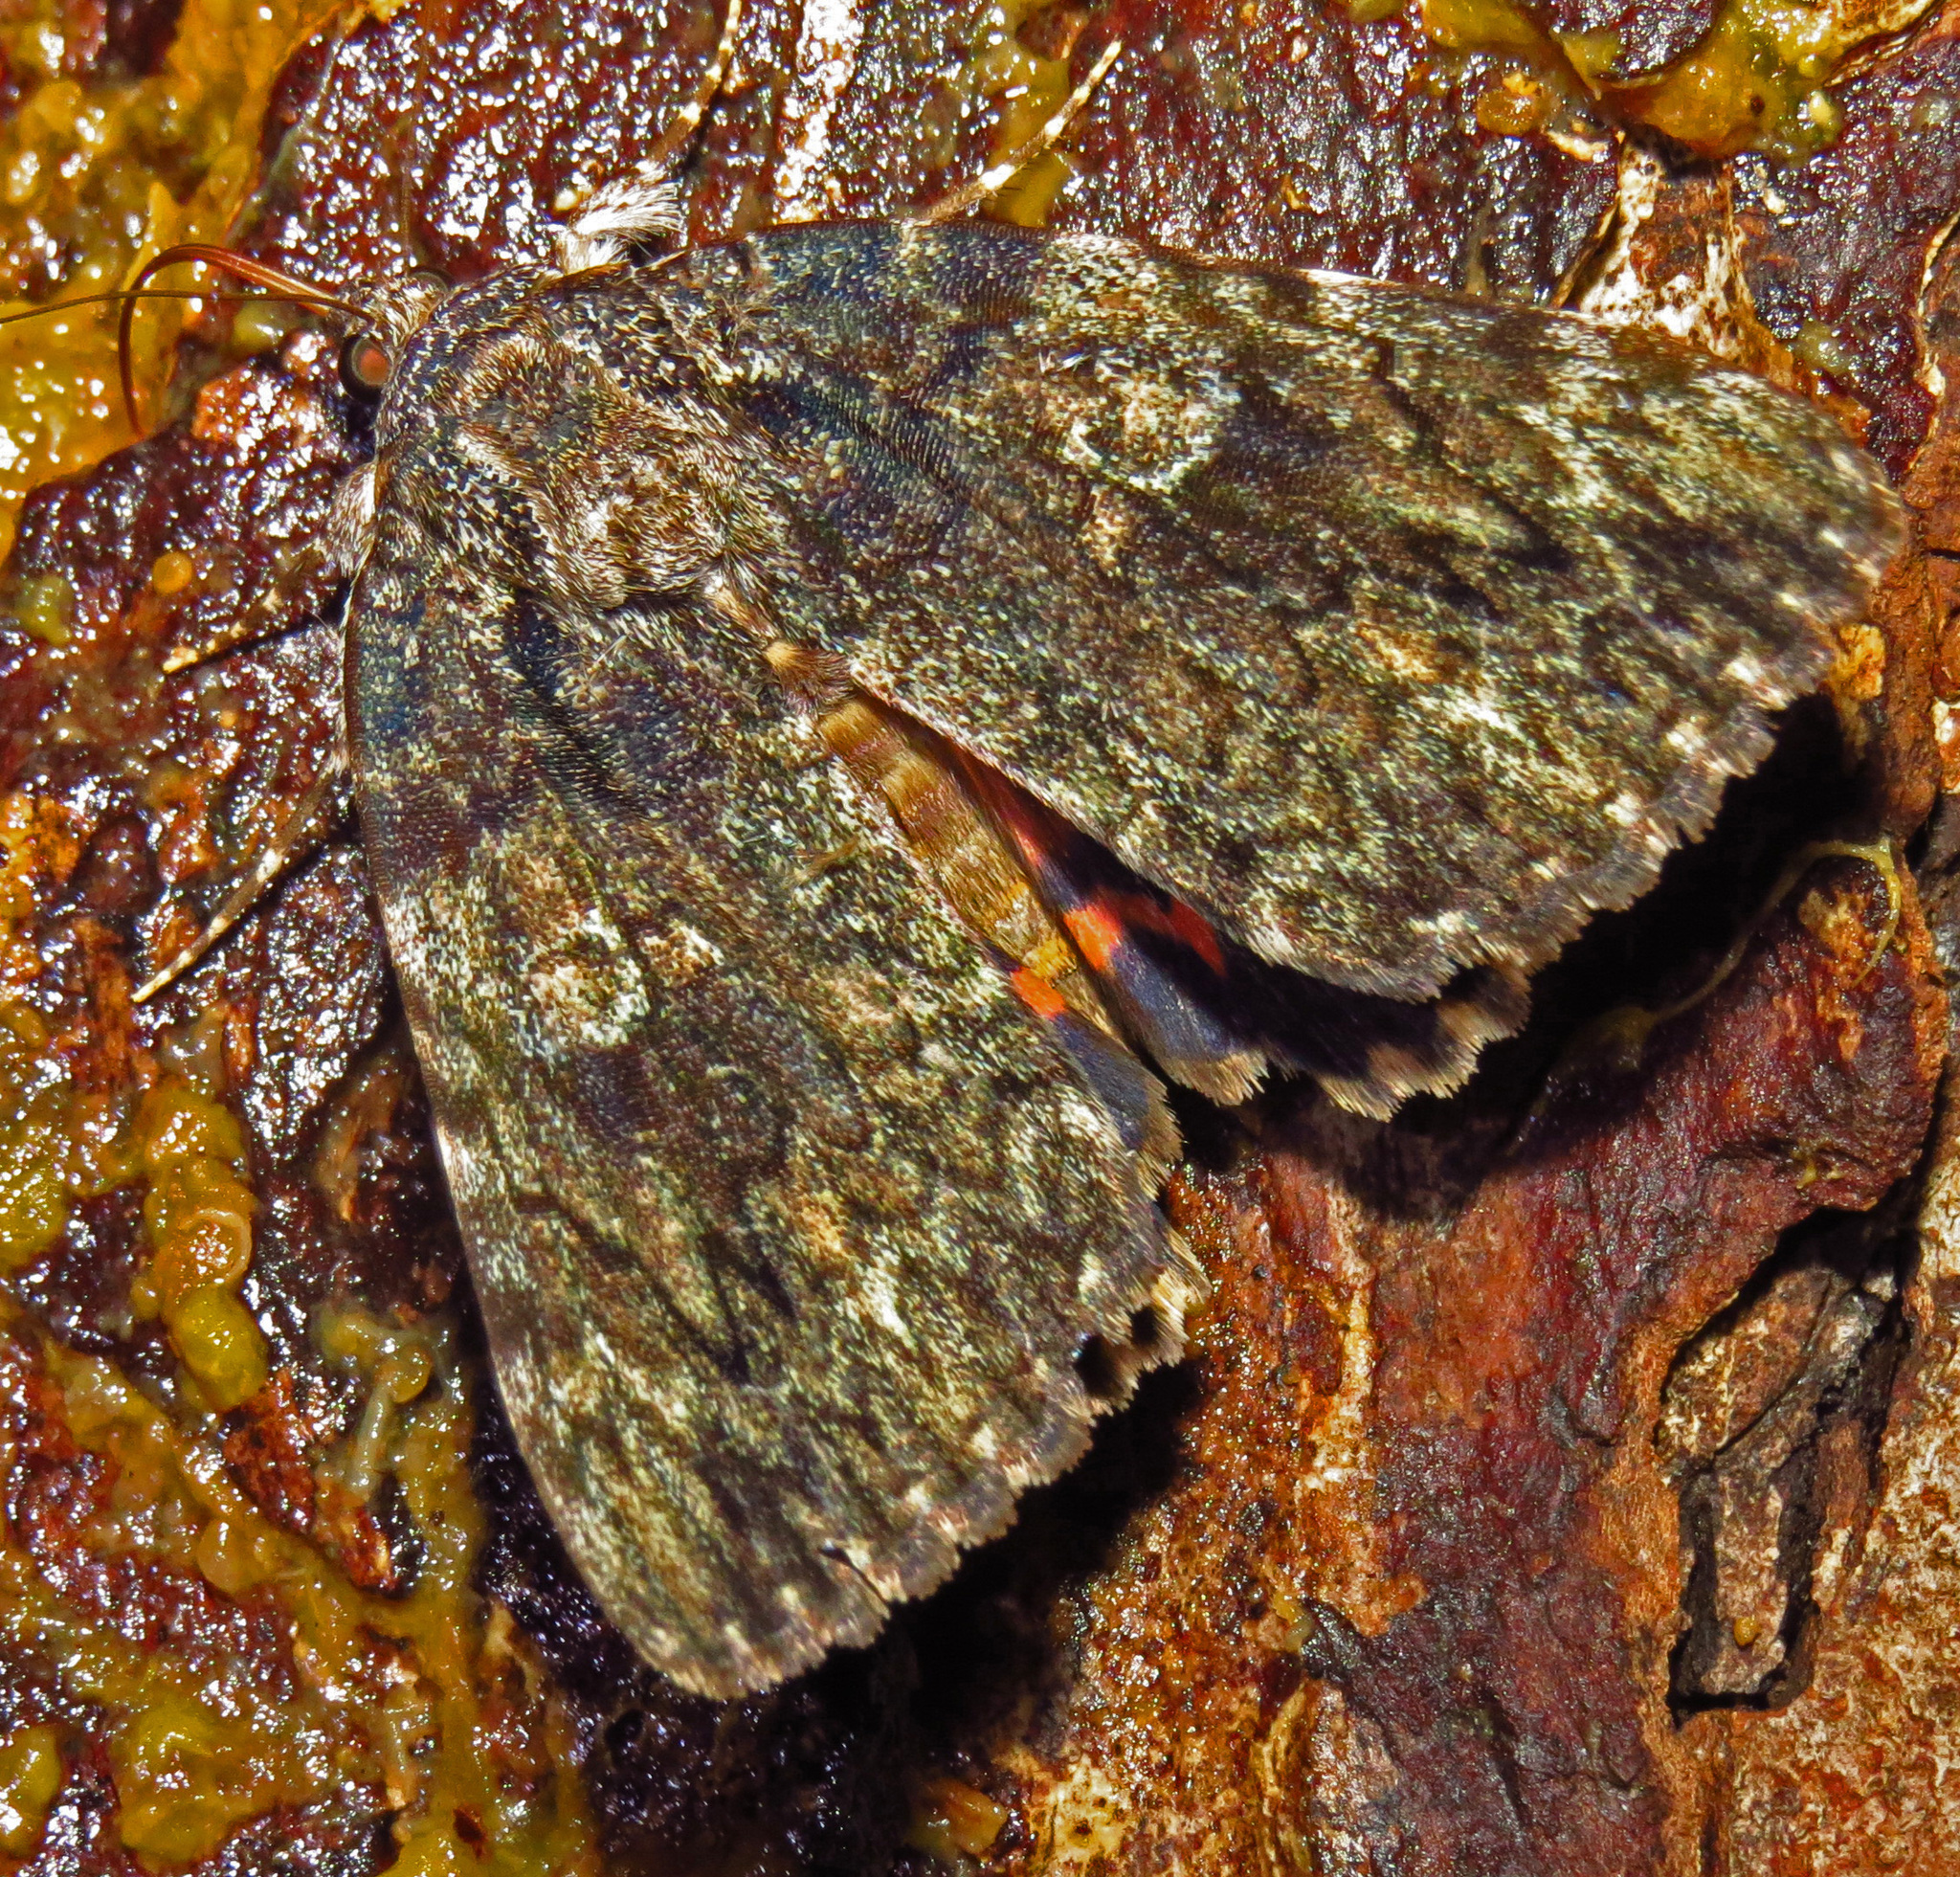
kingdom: Animalia
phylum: Arthropoda
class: Insecta
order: Lepidoptera
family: Erebidae
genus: Catocala
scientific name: Catocala umbrosa
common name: Umber underwing
